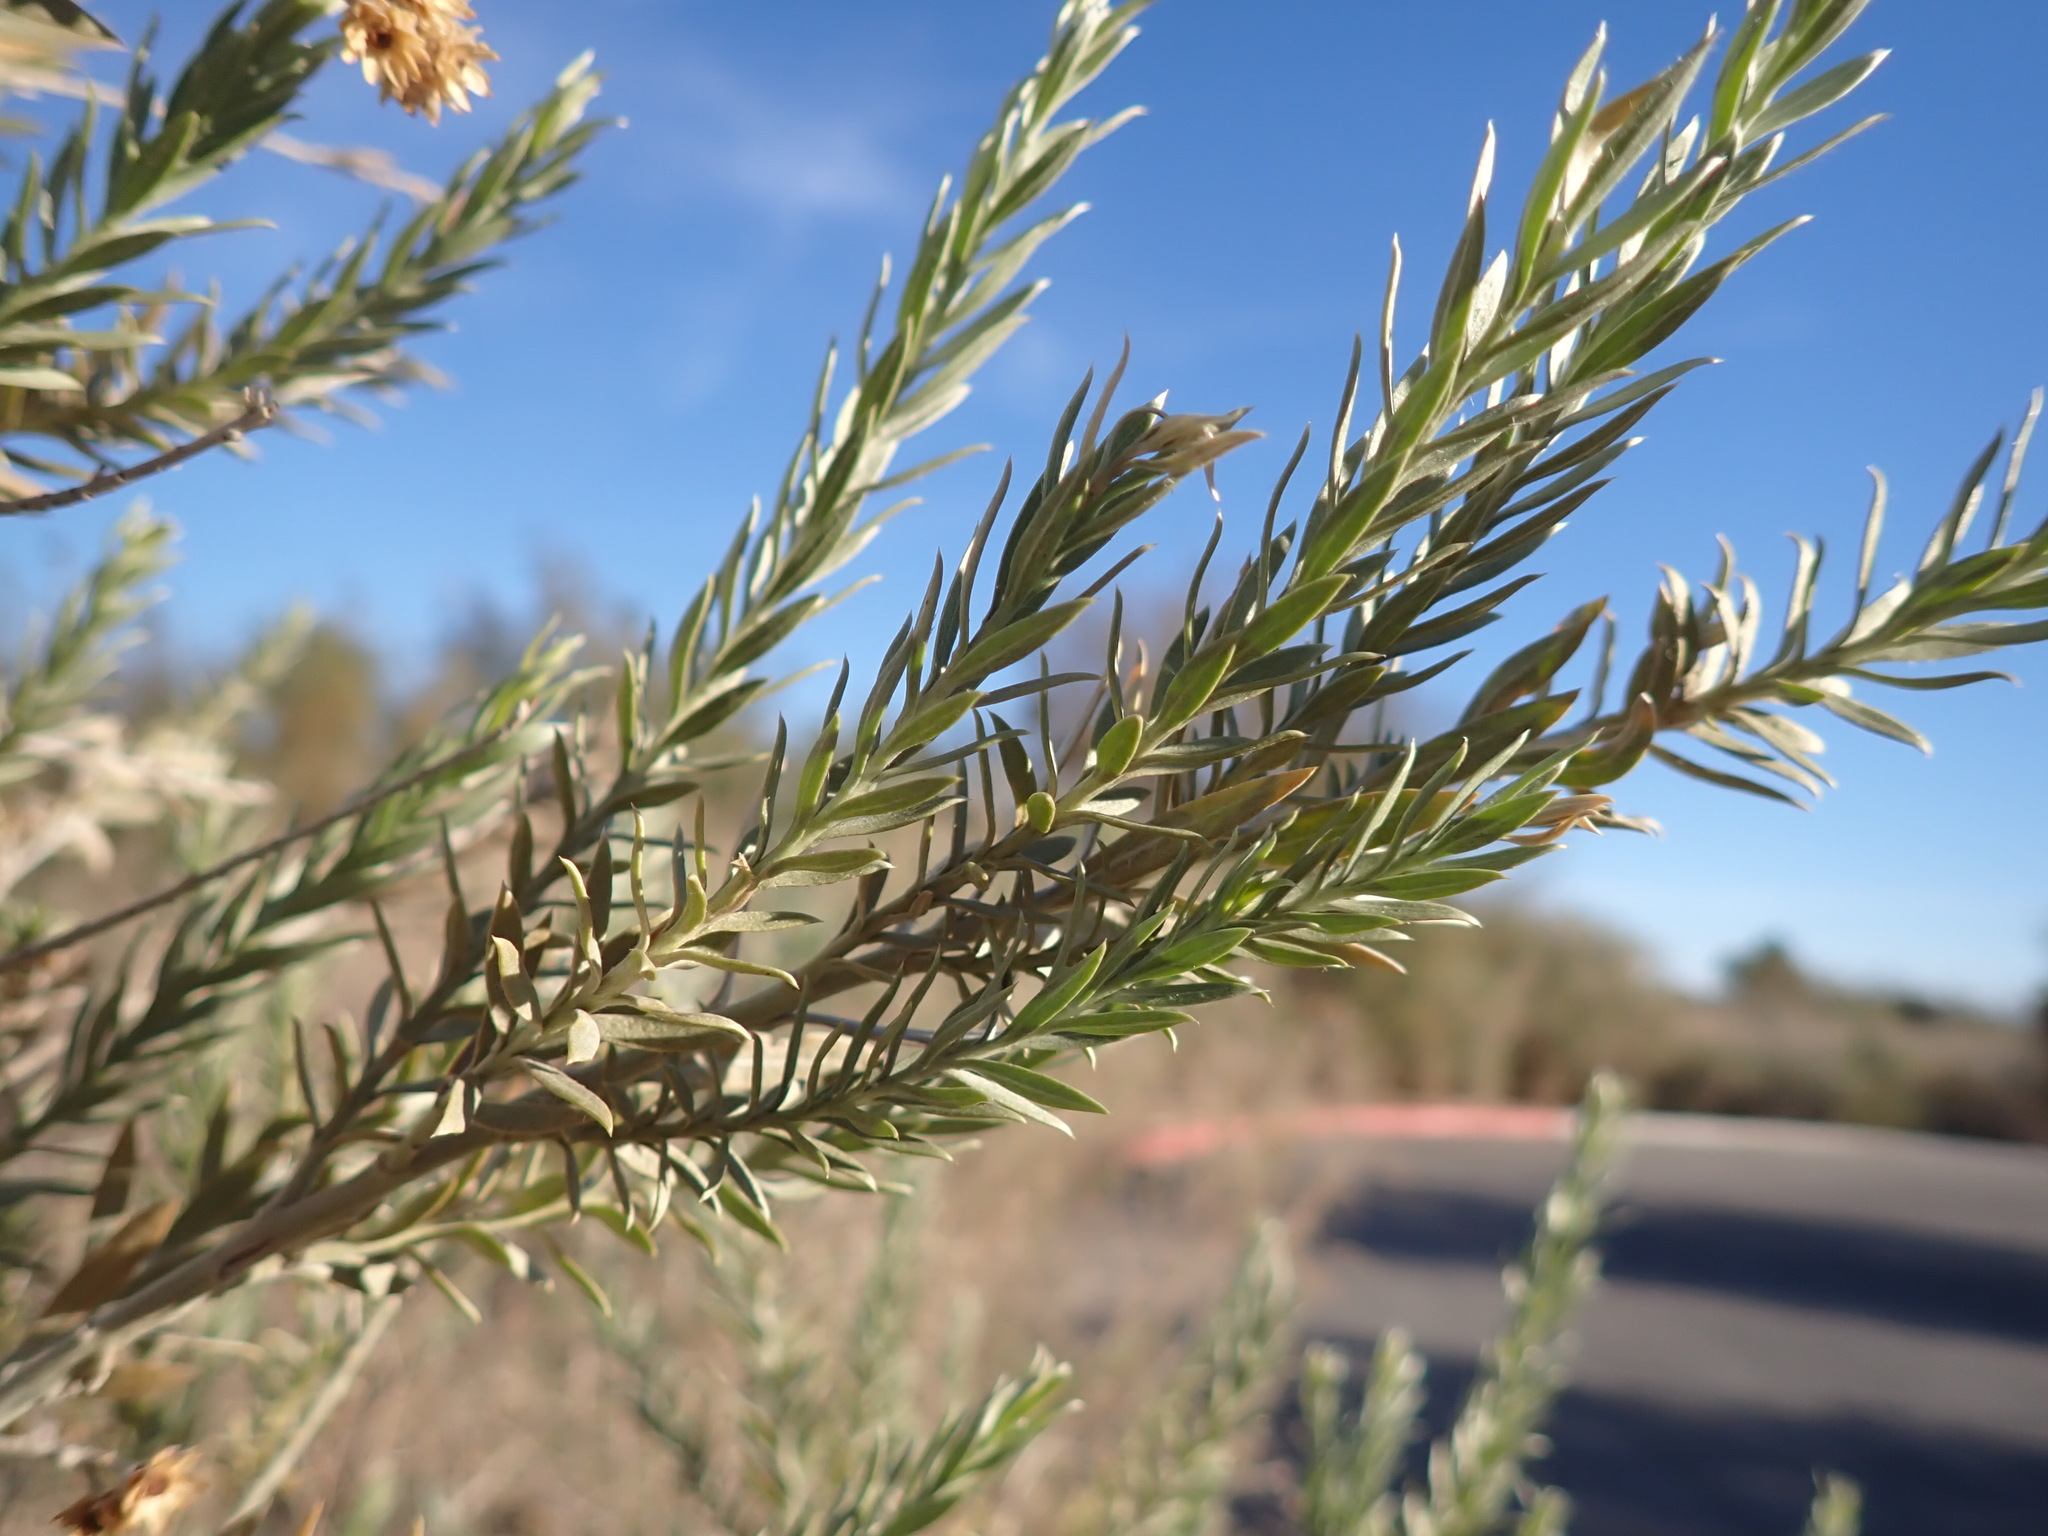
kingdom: Plantae
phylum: Tracheophyta
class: Magnoliopsida
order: Asterales
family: Asteraceae
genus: Pluchea
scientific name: Pluchea sericea
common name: Arrow-weed
